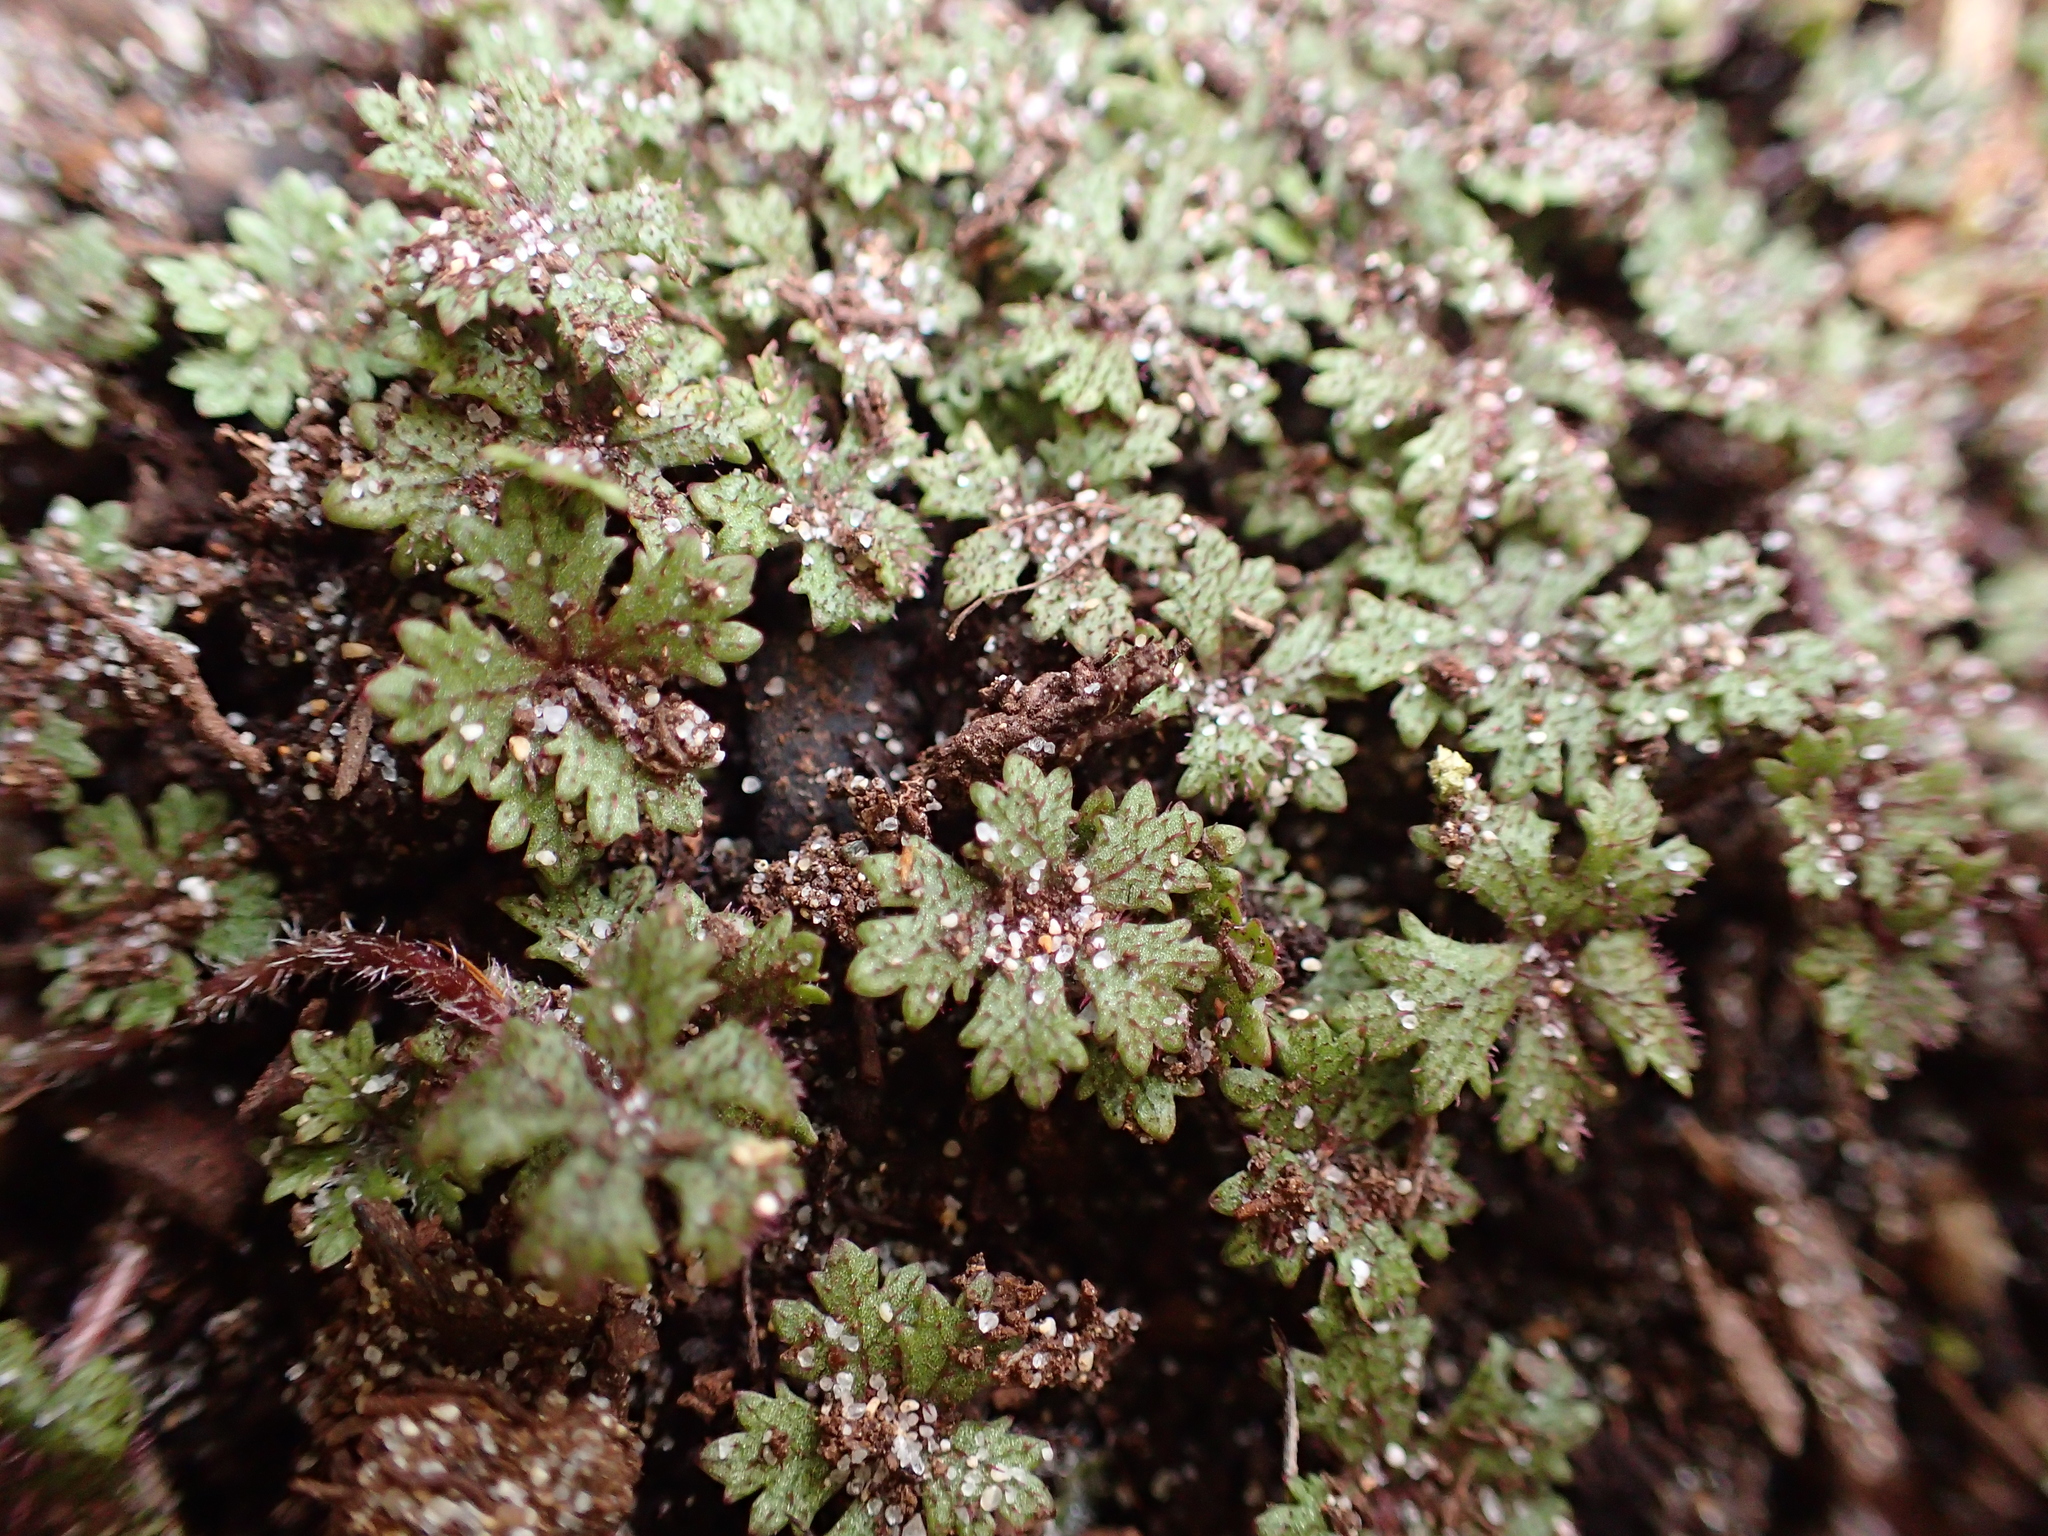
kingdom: Plantae
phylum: Tracheophyta
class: Magnoliopsida
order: Apiales
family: Araliaceae
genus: Hydrocotyle
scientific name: Hydrocotyle dissecta
